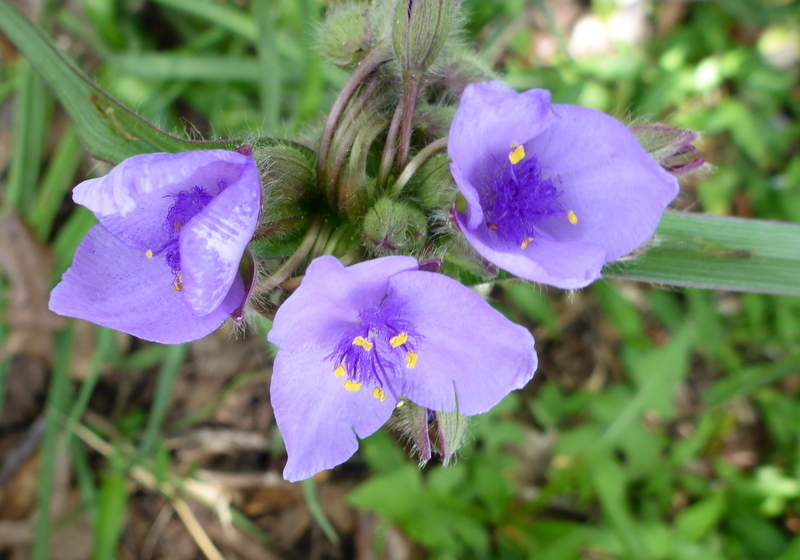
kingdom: Plantae
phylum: Tracheophyta
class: Liliopsida
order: Commelinales
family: Commelinaceae
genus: Tradescantia
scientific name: Tradescantia ohiensis
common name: Ohio spiderwort
